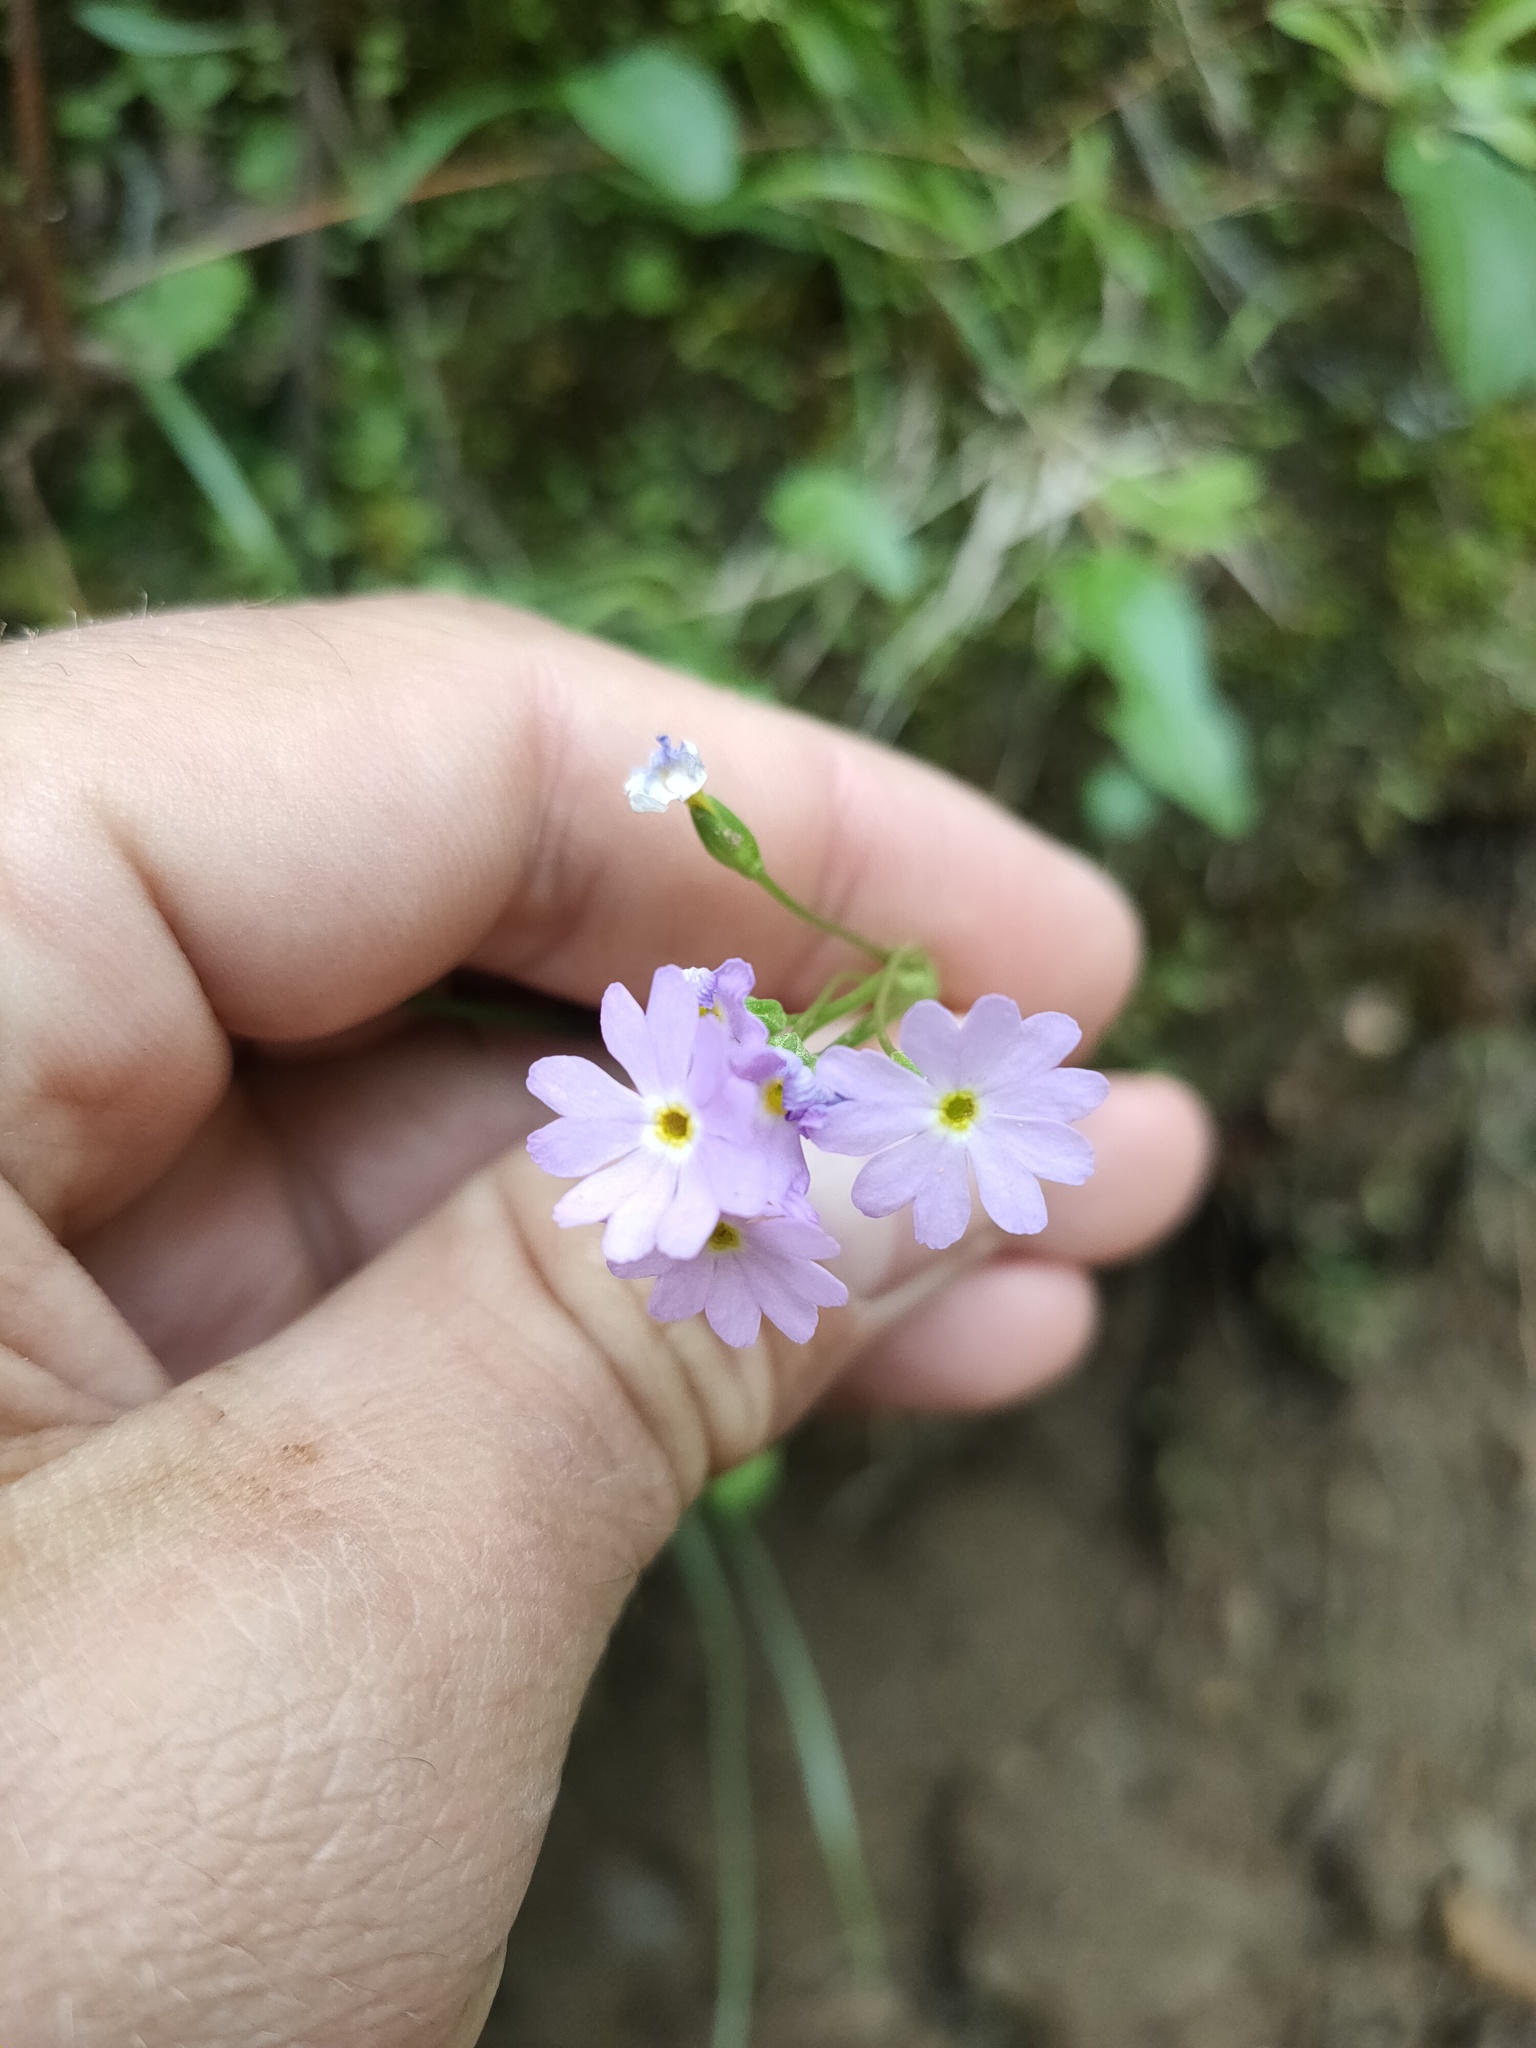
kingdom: Plantae
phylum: Tracheophyta
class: Magnoliopsida
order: Ericales
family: Primulaceae
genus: Primula
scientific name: Primula nutans
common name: Siberian primrose
